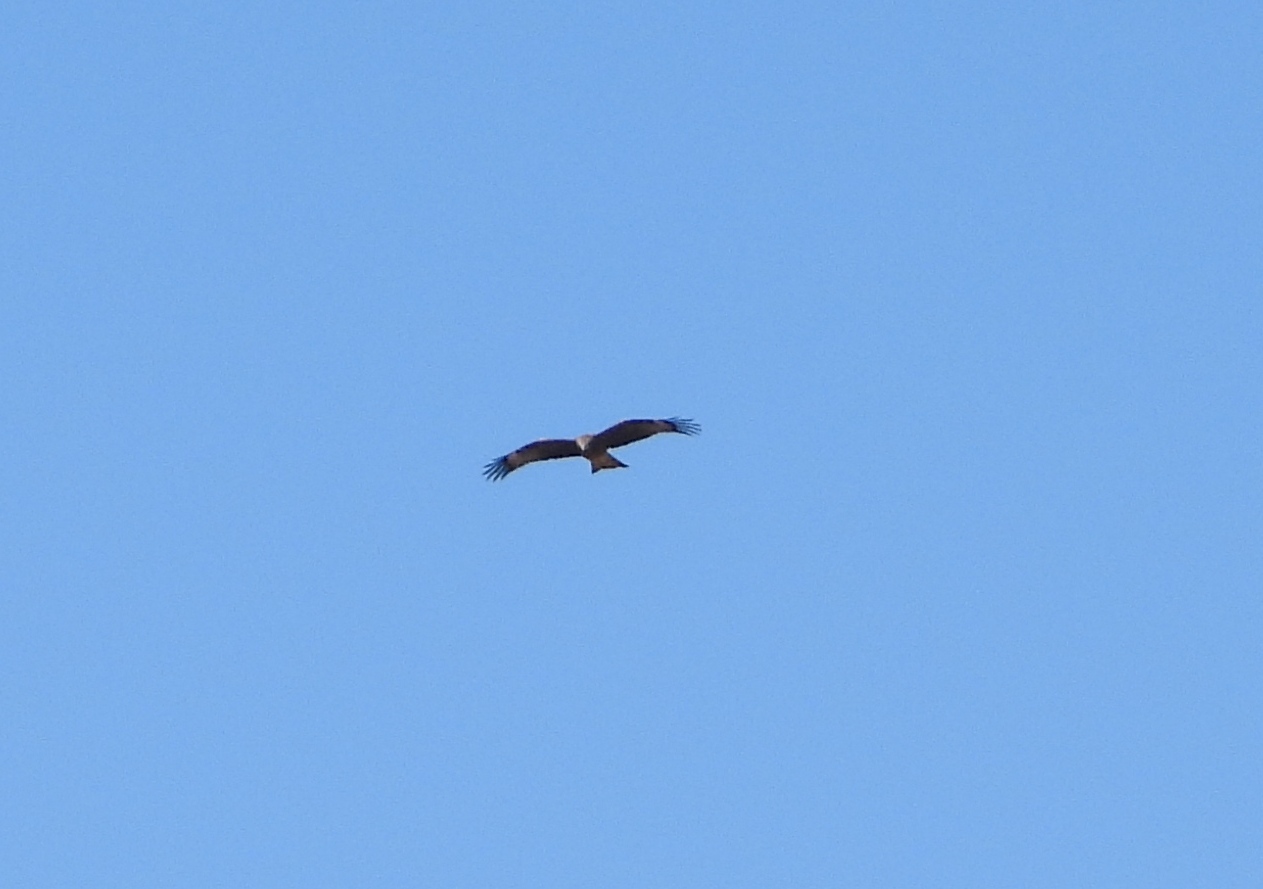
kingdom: Animalia
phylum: Chordata
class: Aves
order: Accipitriformes
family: Accipitridae
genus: Milvus
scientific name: Milvus migrans
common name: Black kite
